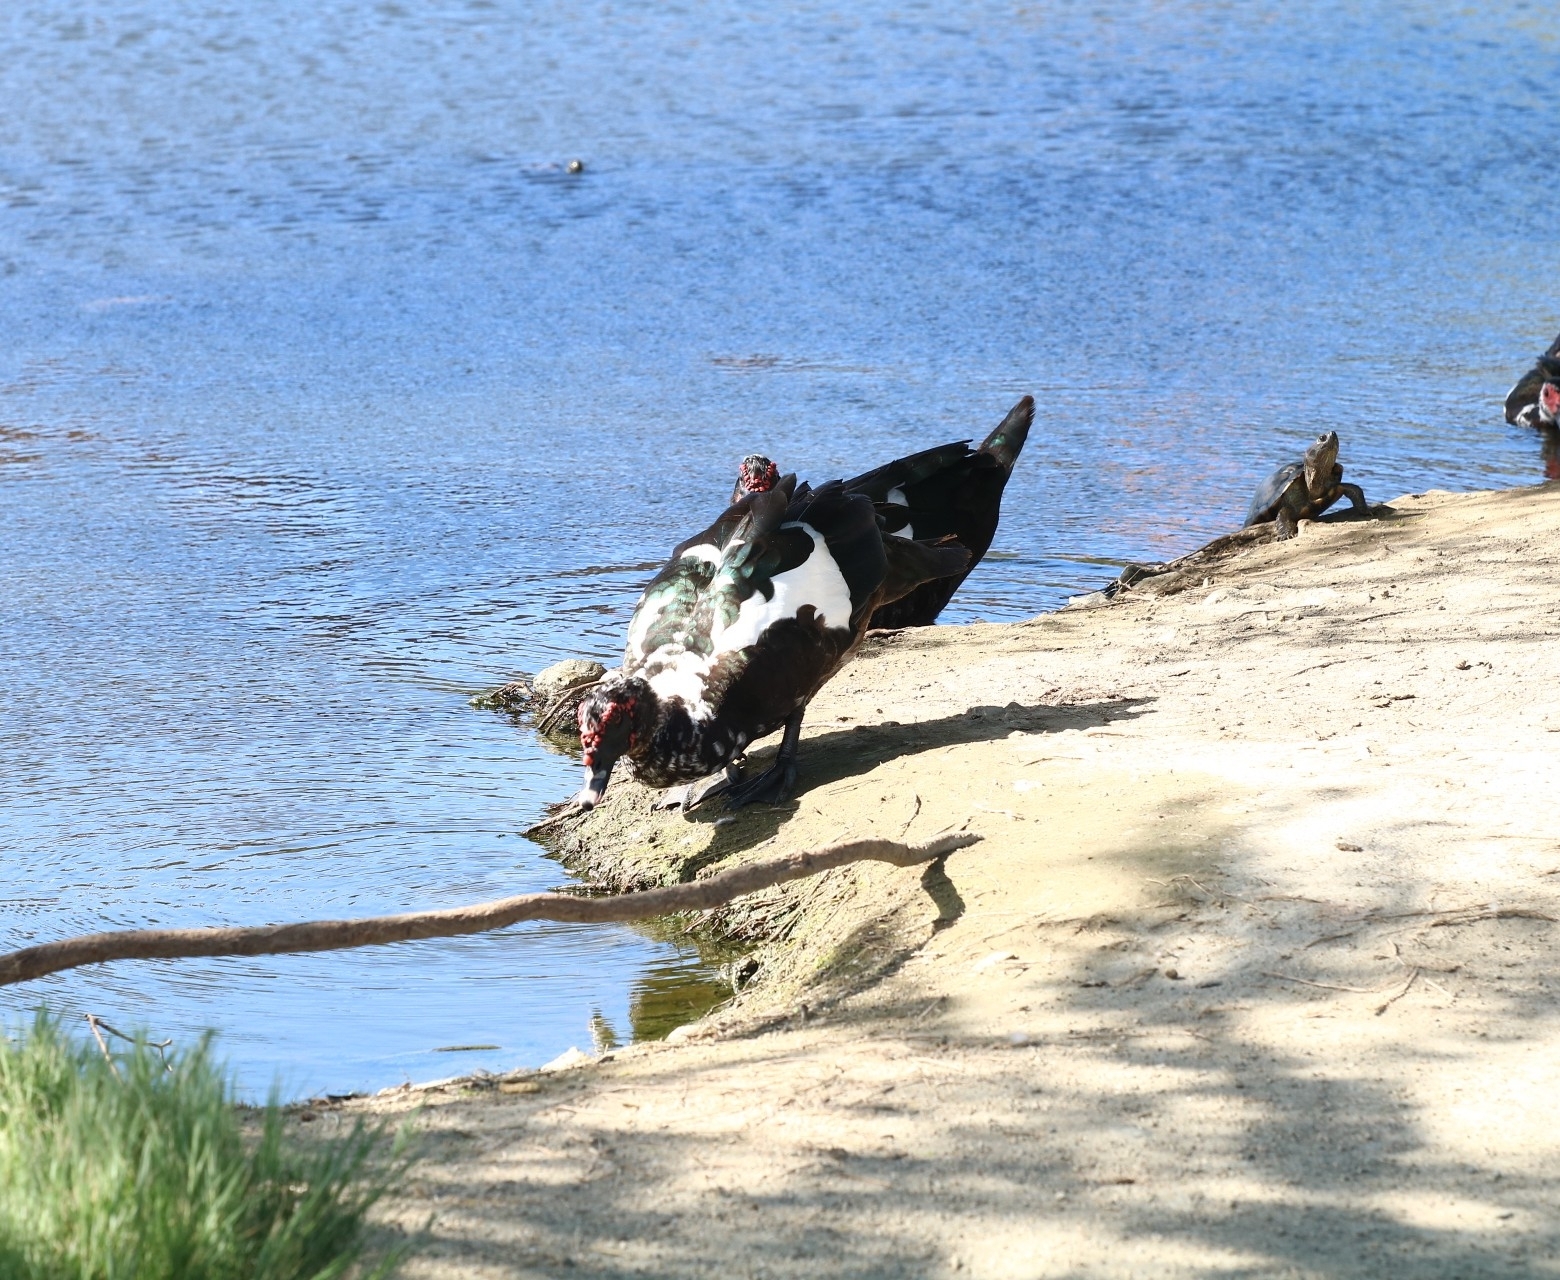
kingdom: Animalia
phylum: Chordata
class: Aves
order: Anseriformes
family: Anatidae
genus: Cairina
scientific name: Cairina moschata
